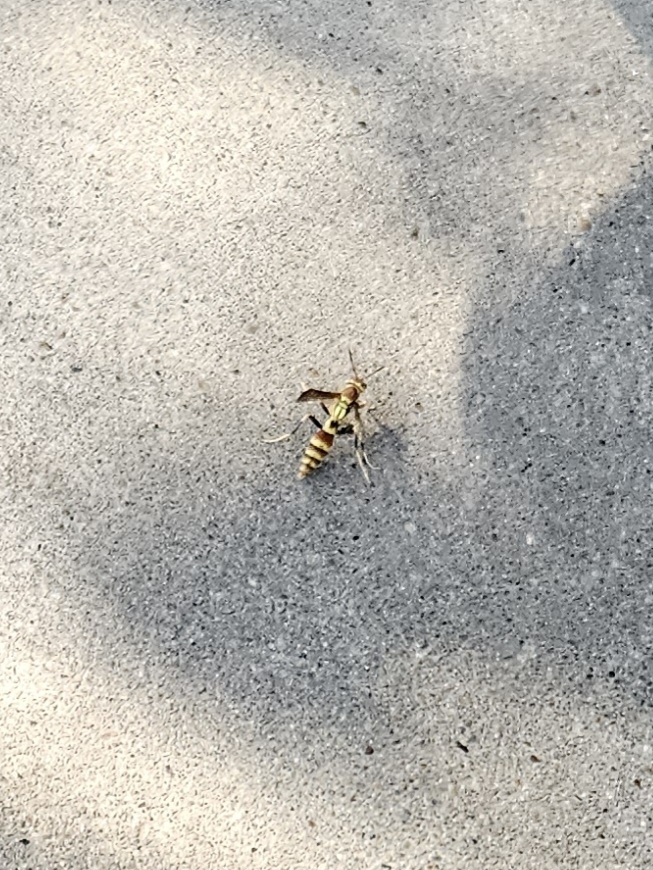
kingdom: Animalia
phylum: Arthropoda
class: Insecta
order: Hymenoptera
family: Eumenidae
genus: Polistes
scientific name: Polistes exclamans
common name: Paper wasp
